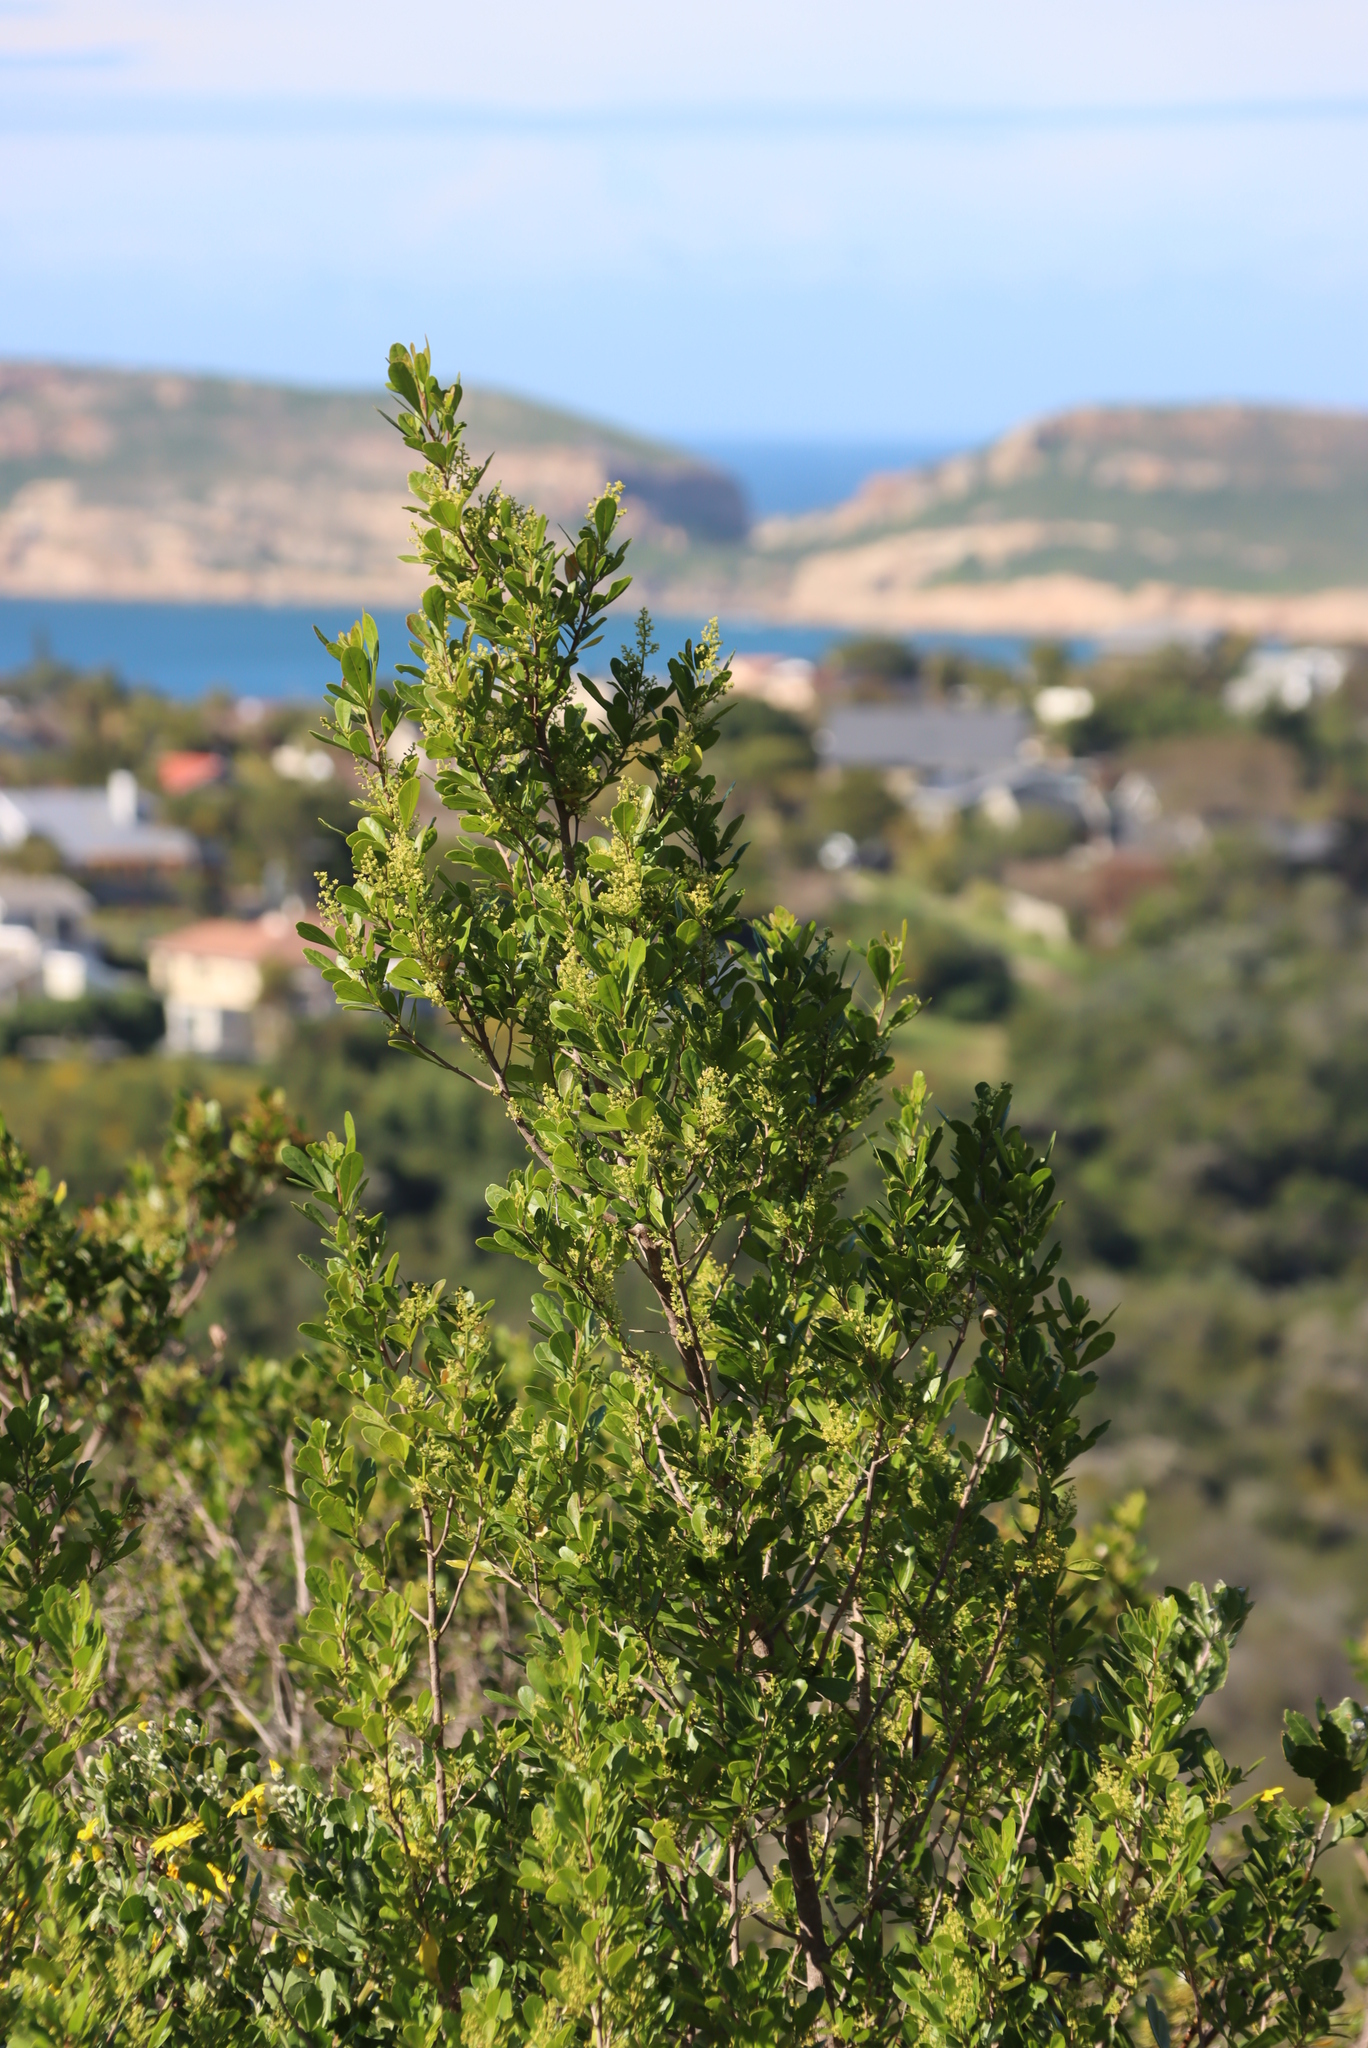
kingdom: Plantae
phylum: Tracheophyta
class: Magnoliopsida
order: Sapindales
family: Anacardiaceae
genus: Searsia
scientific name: Searsia lucida
